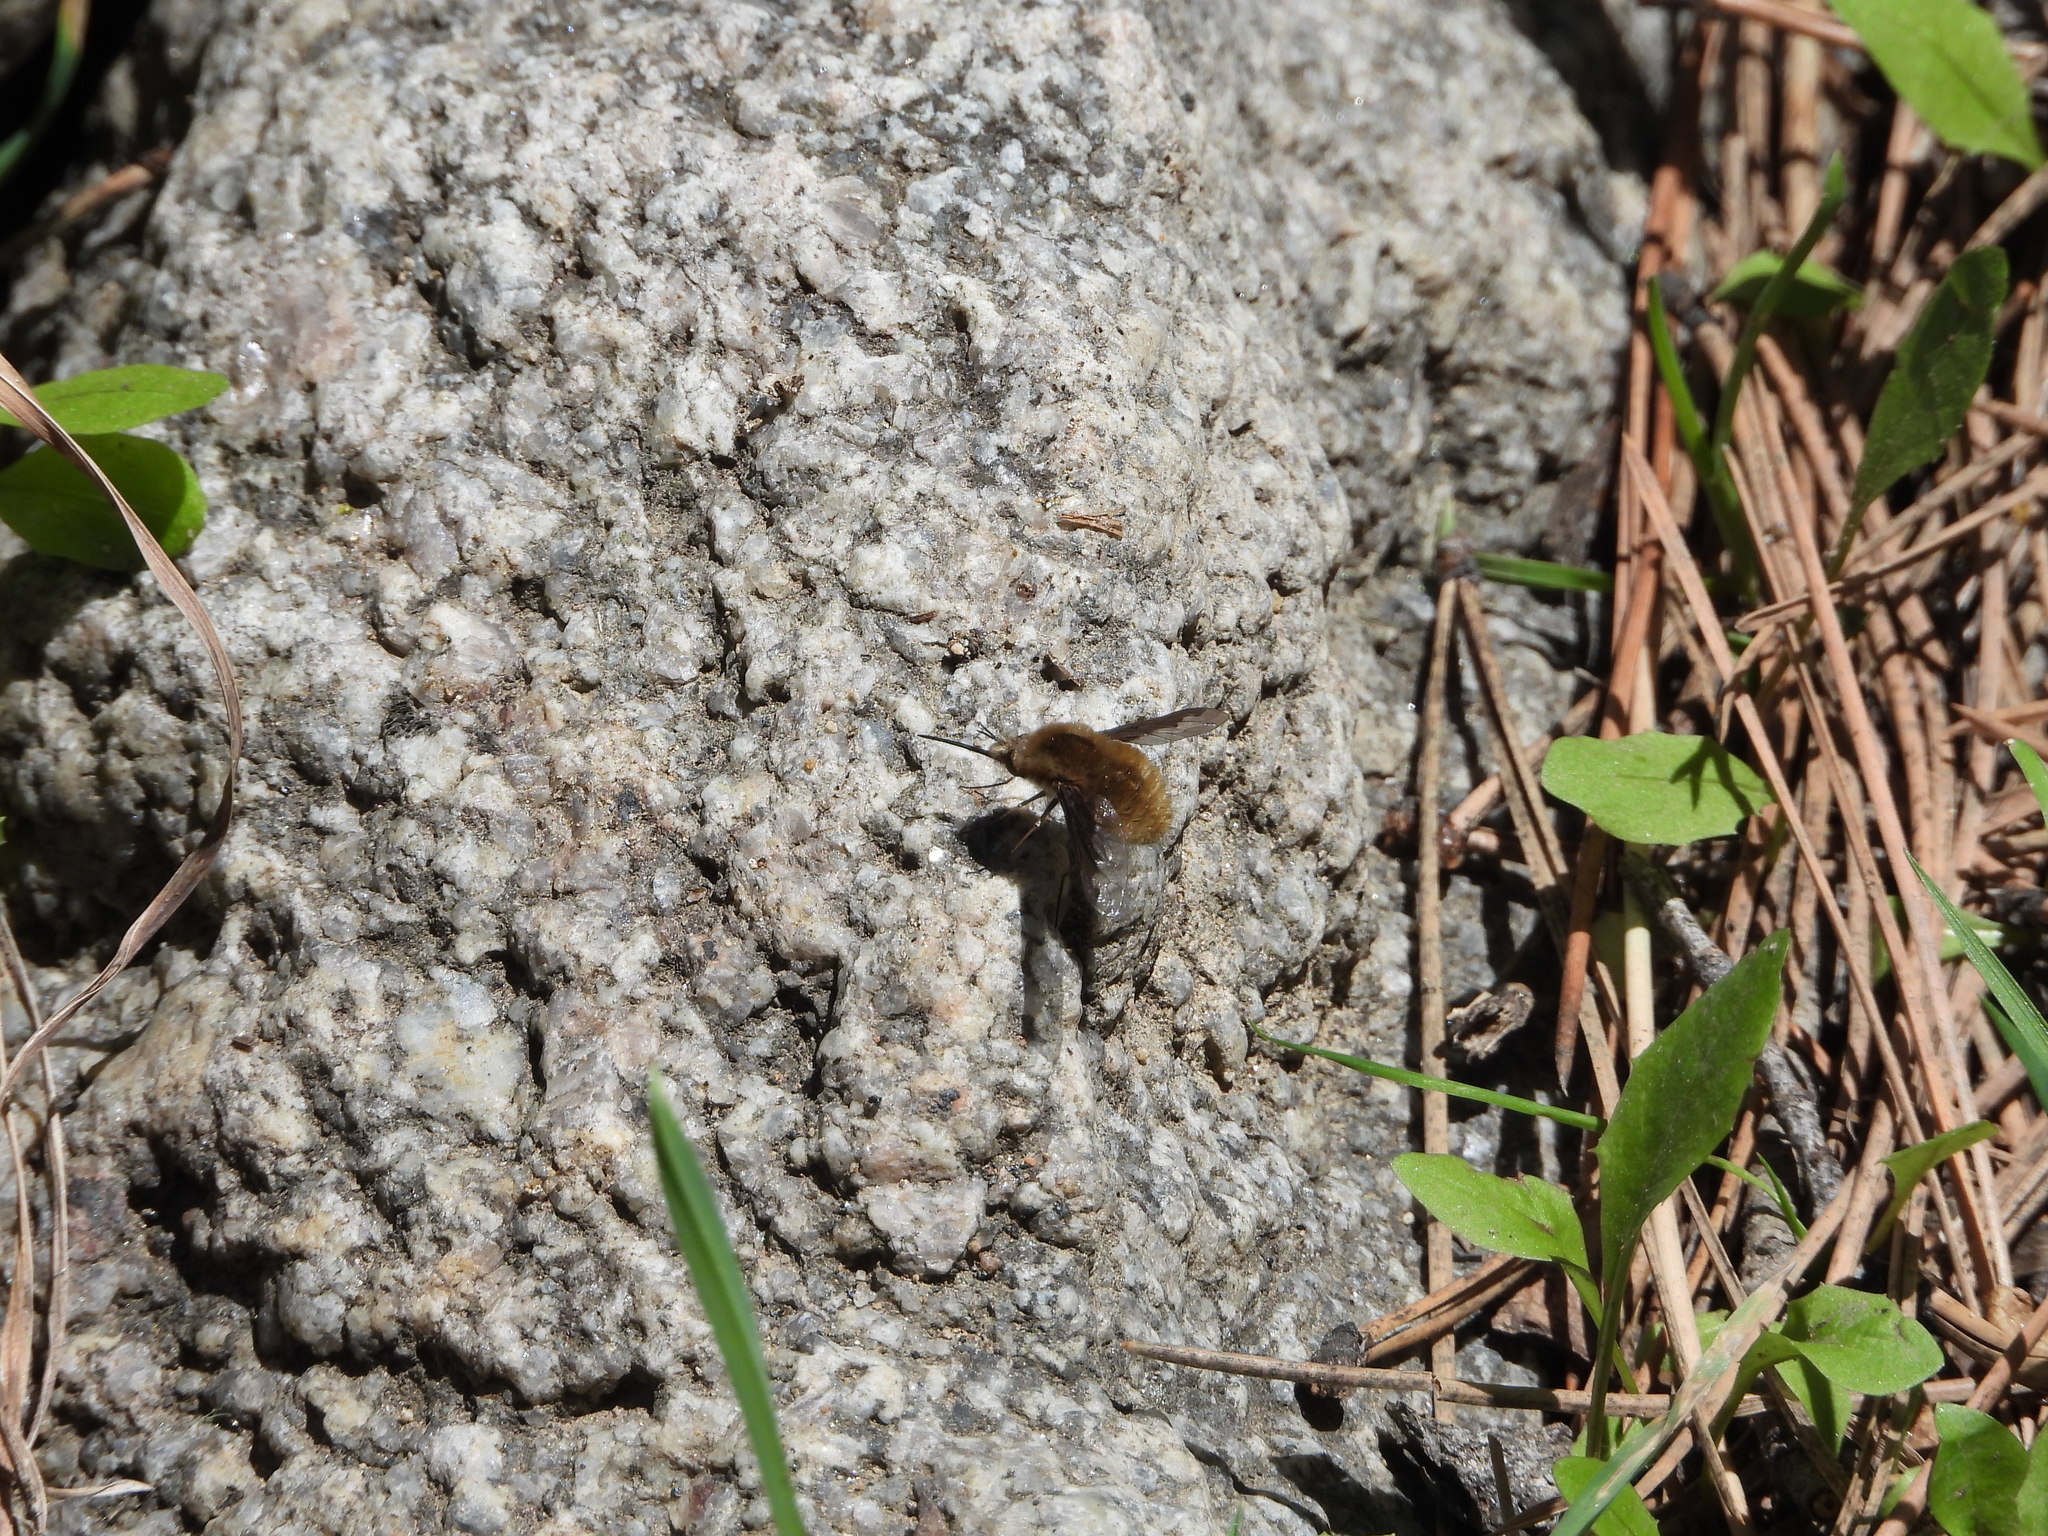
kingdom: Animalia
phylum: Arthropoda
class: Insecta
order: Diptera
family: Bombyliidae
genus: Bombylius
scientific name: Bombylius major
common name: Bee fly
